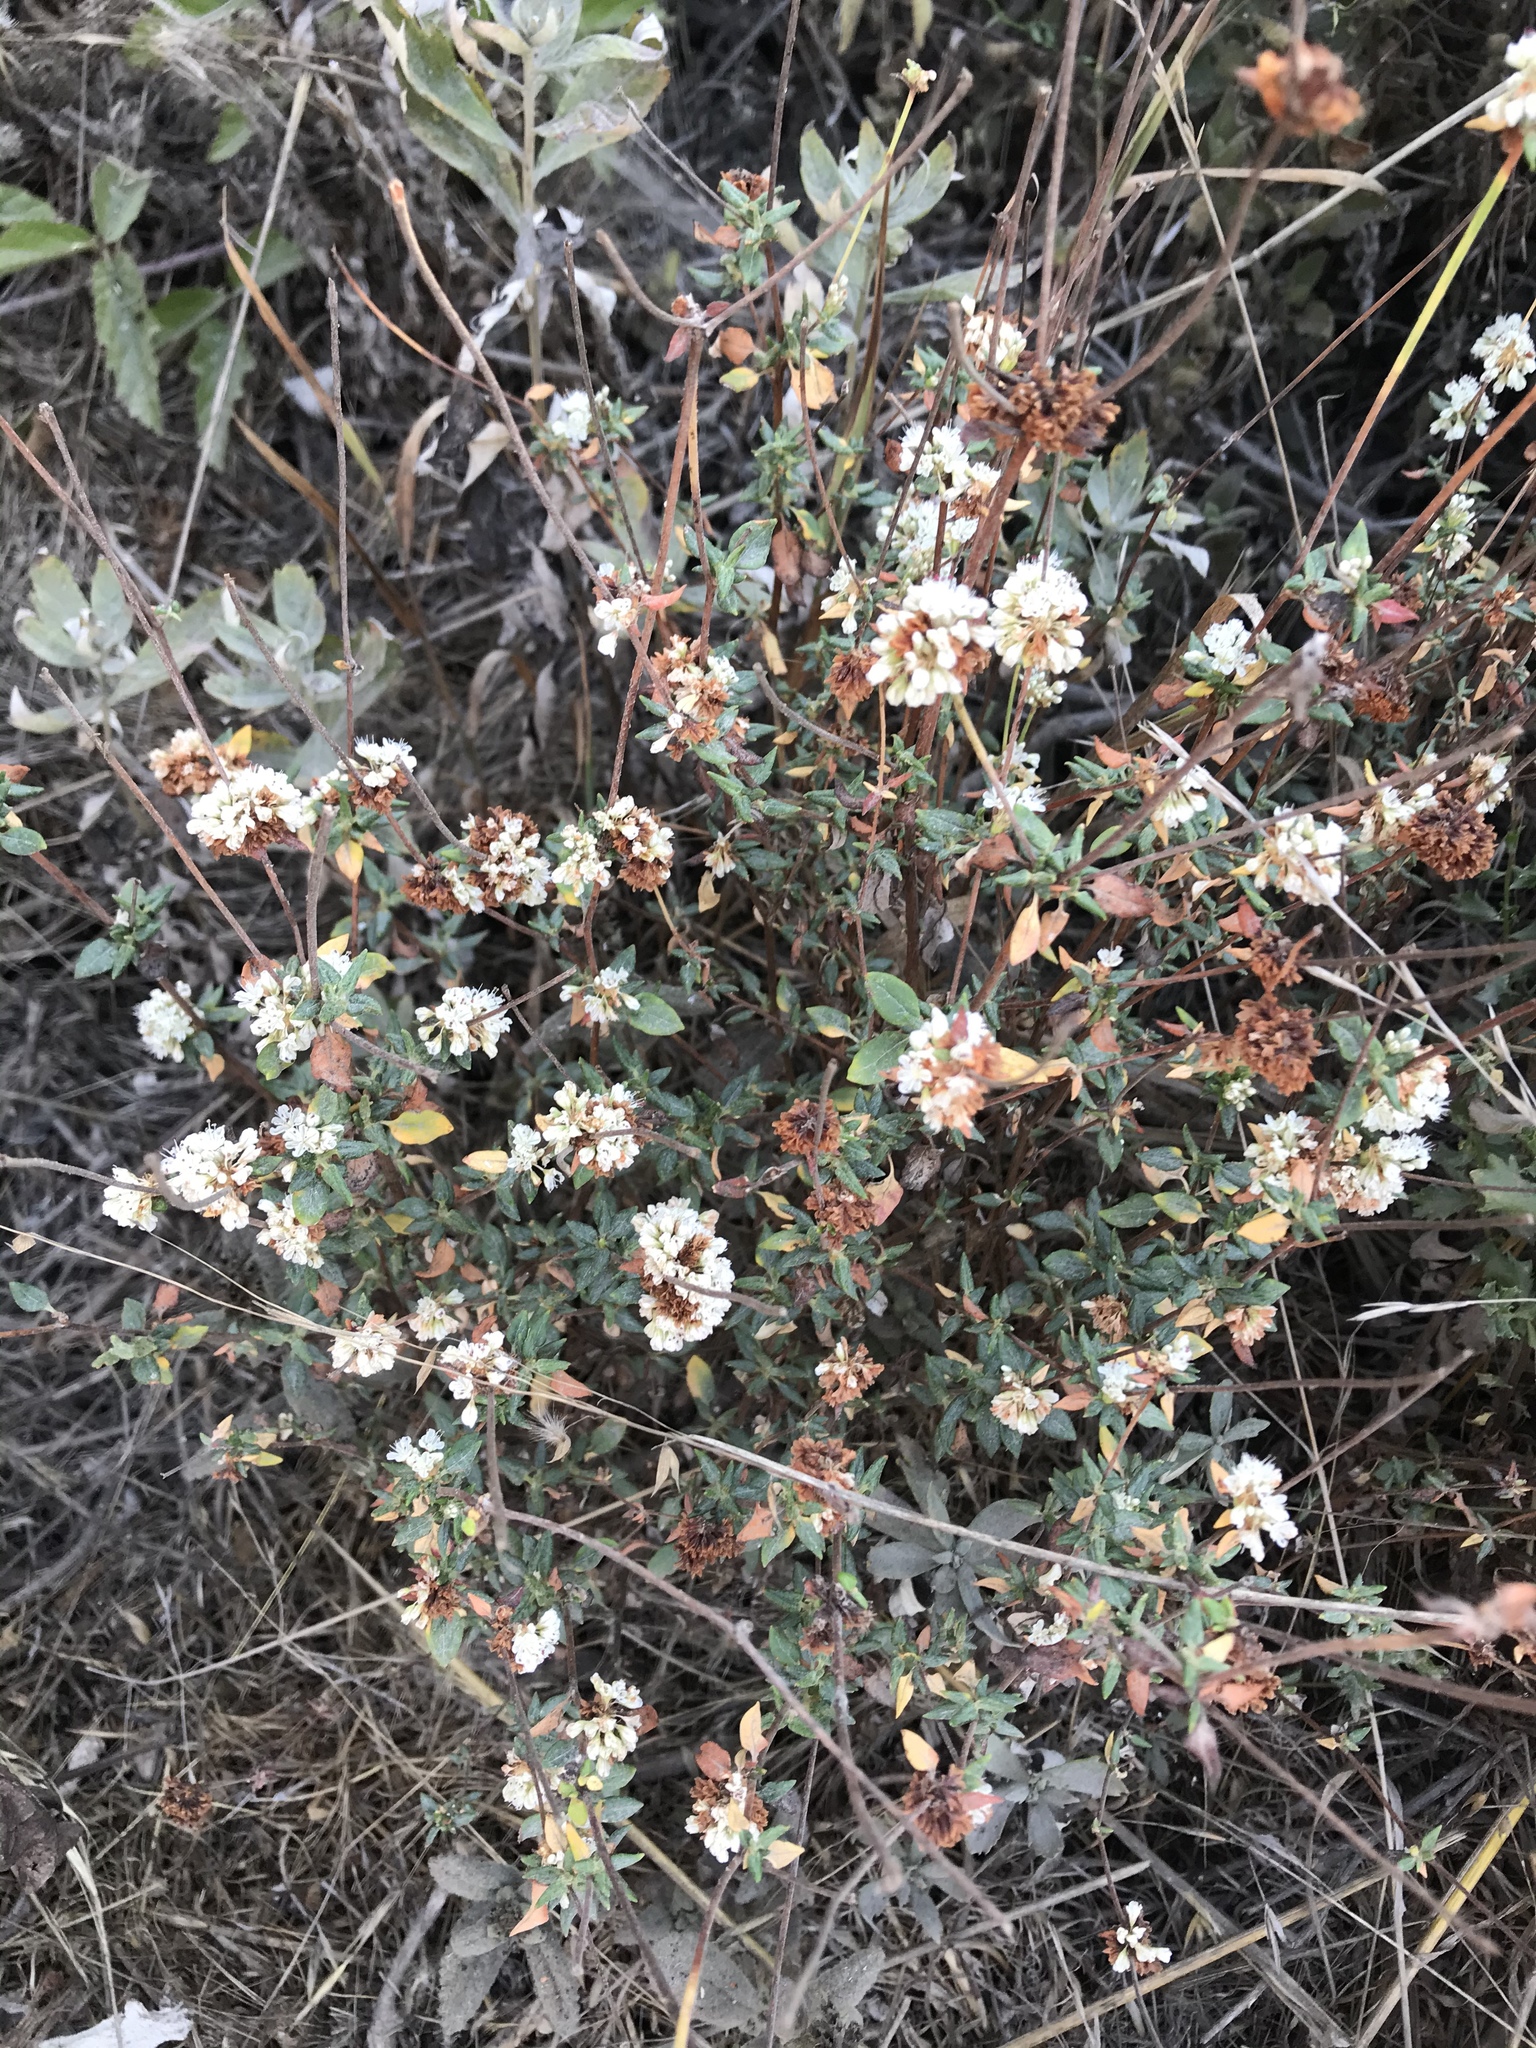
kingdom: Plantae
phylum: Tracheophyta
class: Magnoliopsida
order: Caryophyllales
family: Polygonaceae
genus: Eriogonum
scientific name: Eriogonum parvifolium
